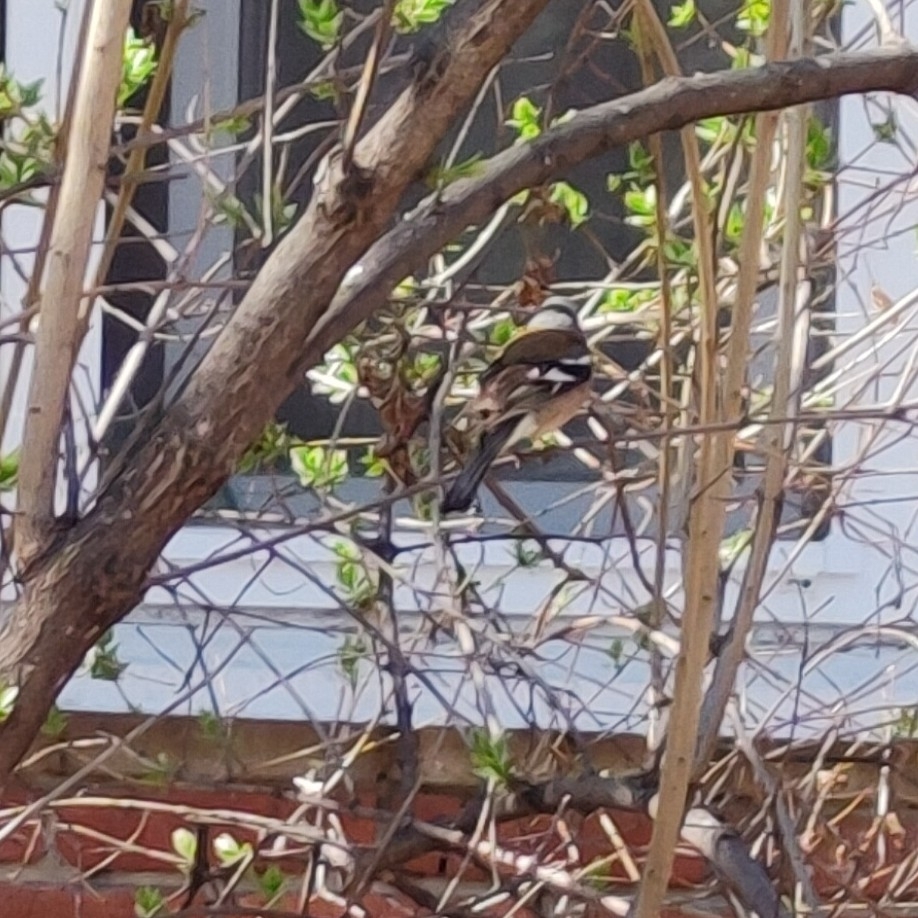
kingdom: Animalia
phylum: Chordata
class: Aves
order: Passeriformes
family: Fringillidae
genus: Fringilla
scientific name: Fringilla coelebs
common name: Common chaffinch
